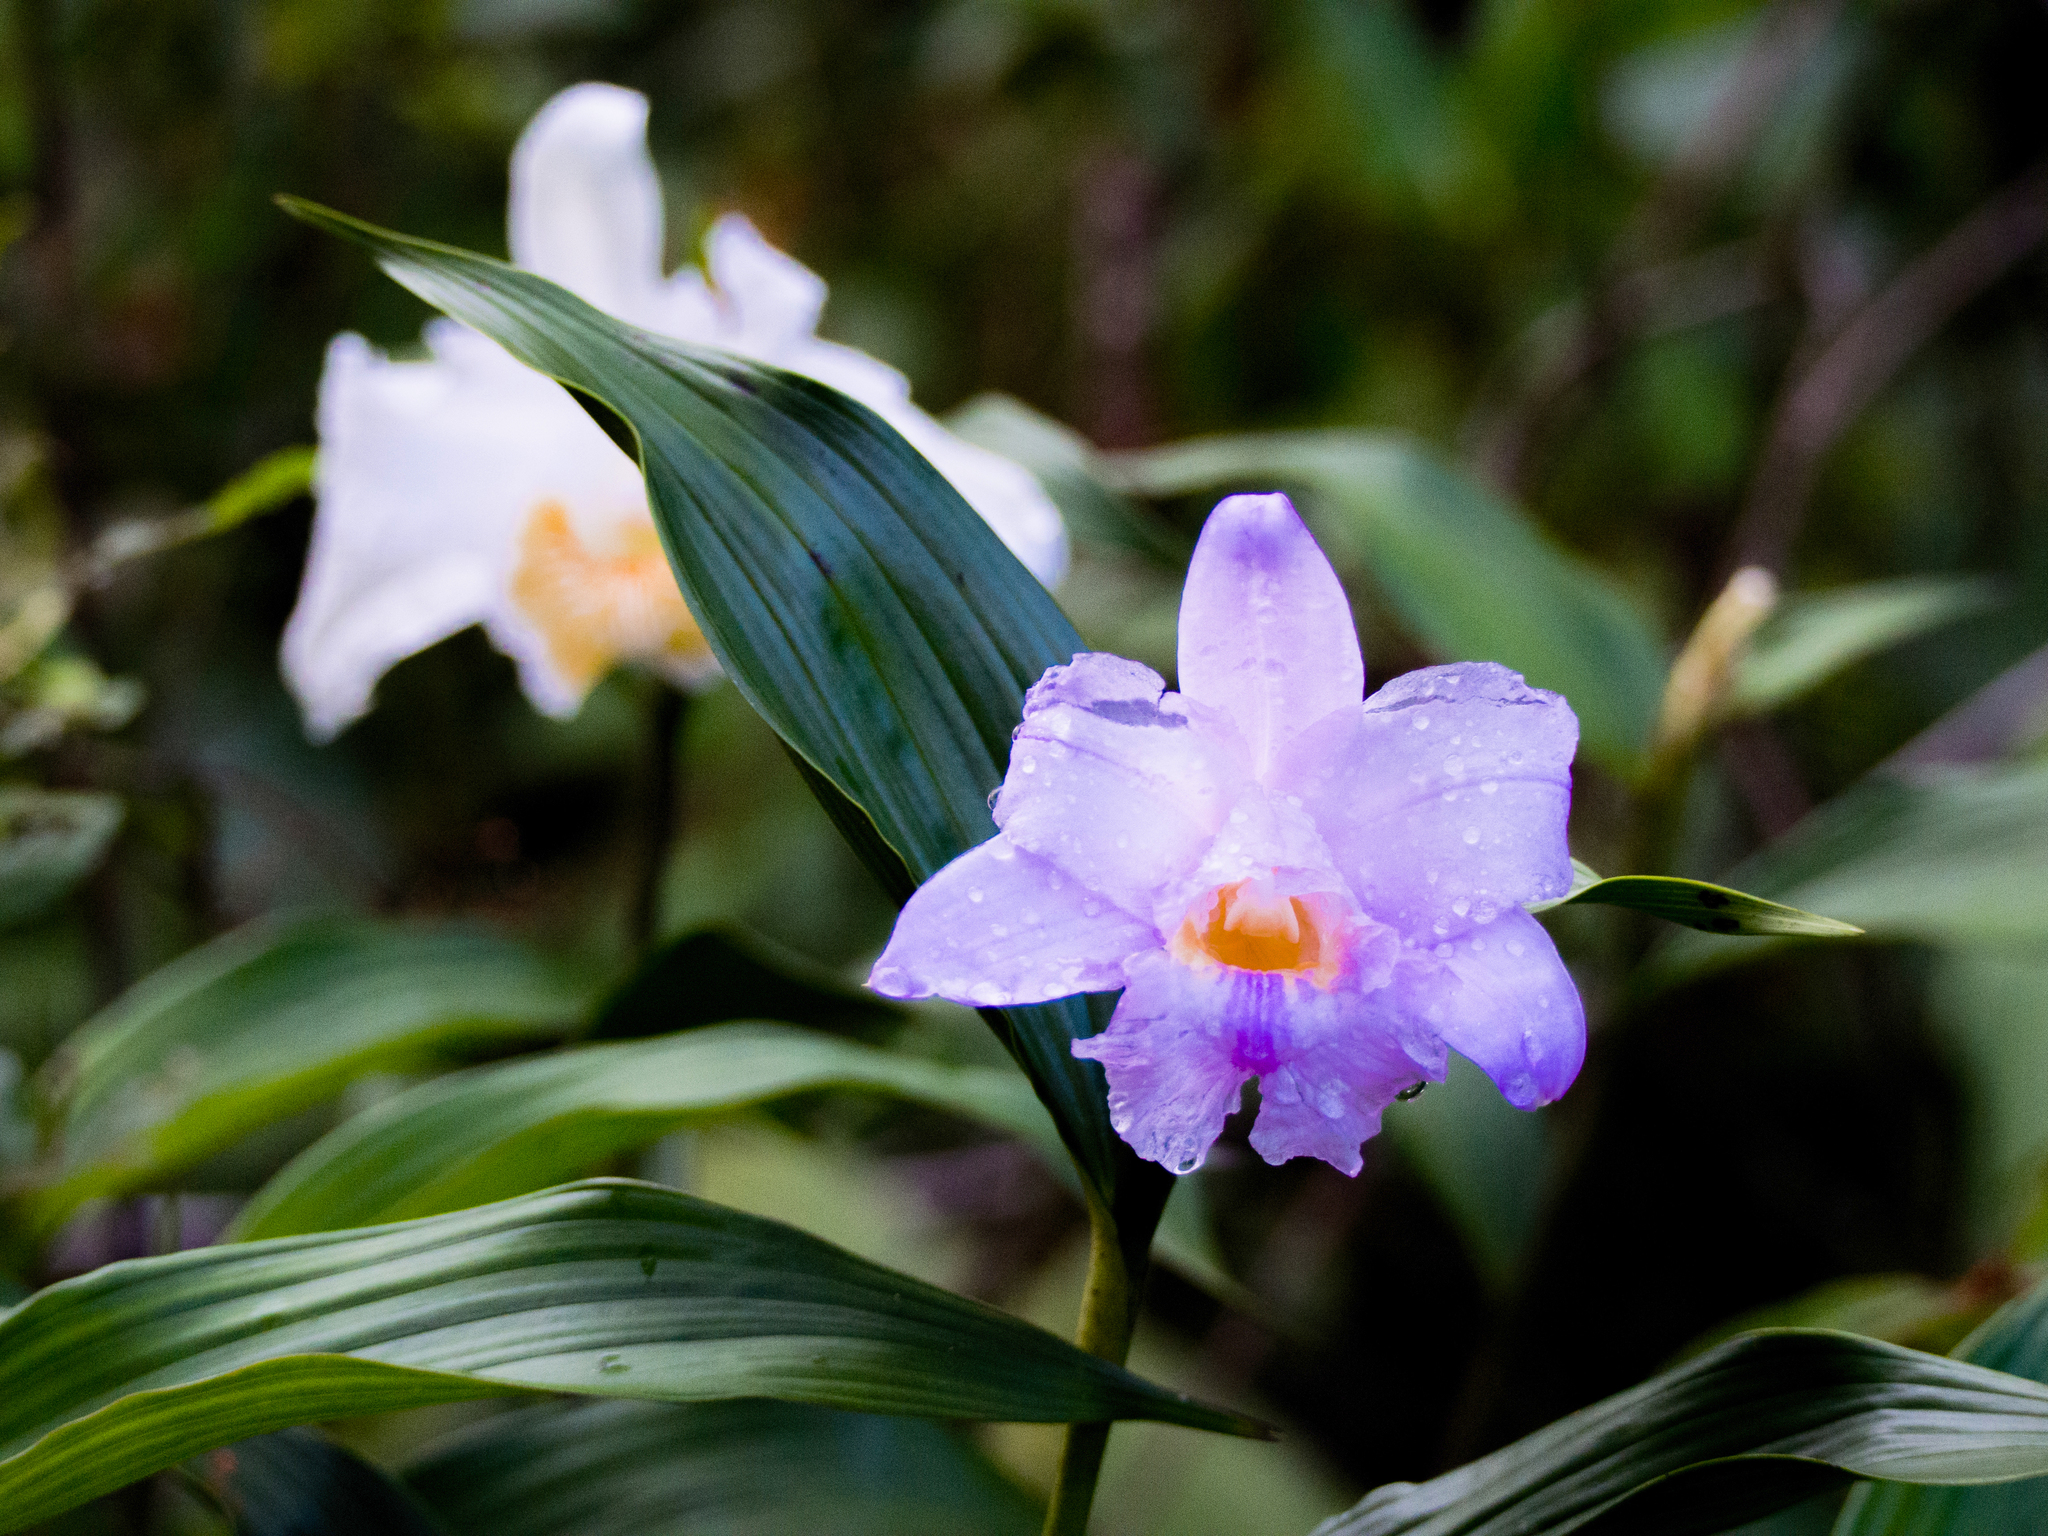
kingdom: Plantae
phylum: Tracheophyta
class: Liliopsida
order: Asparagales
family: Orchidaceae
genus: Sobralia
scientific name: Sobralia warszewiczii
